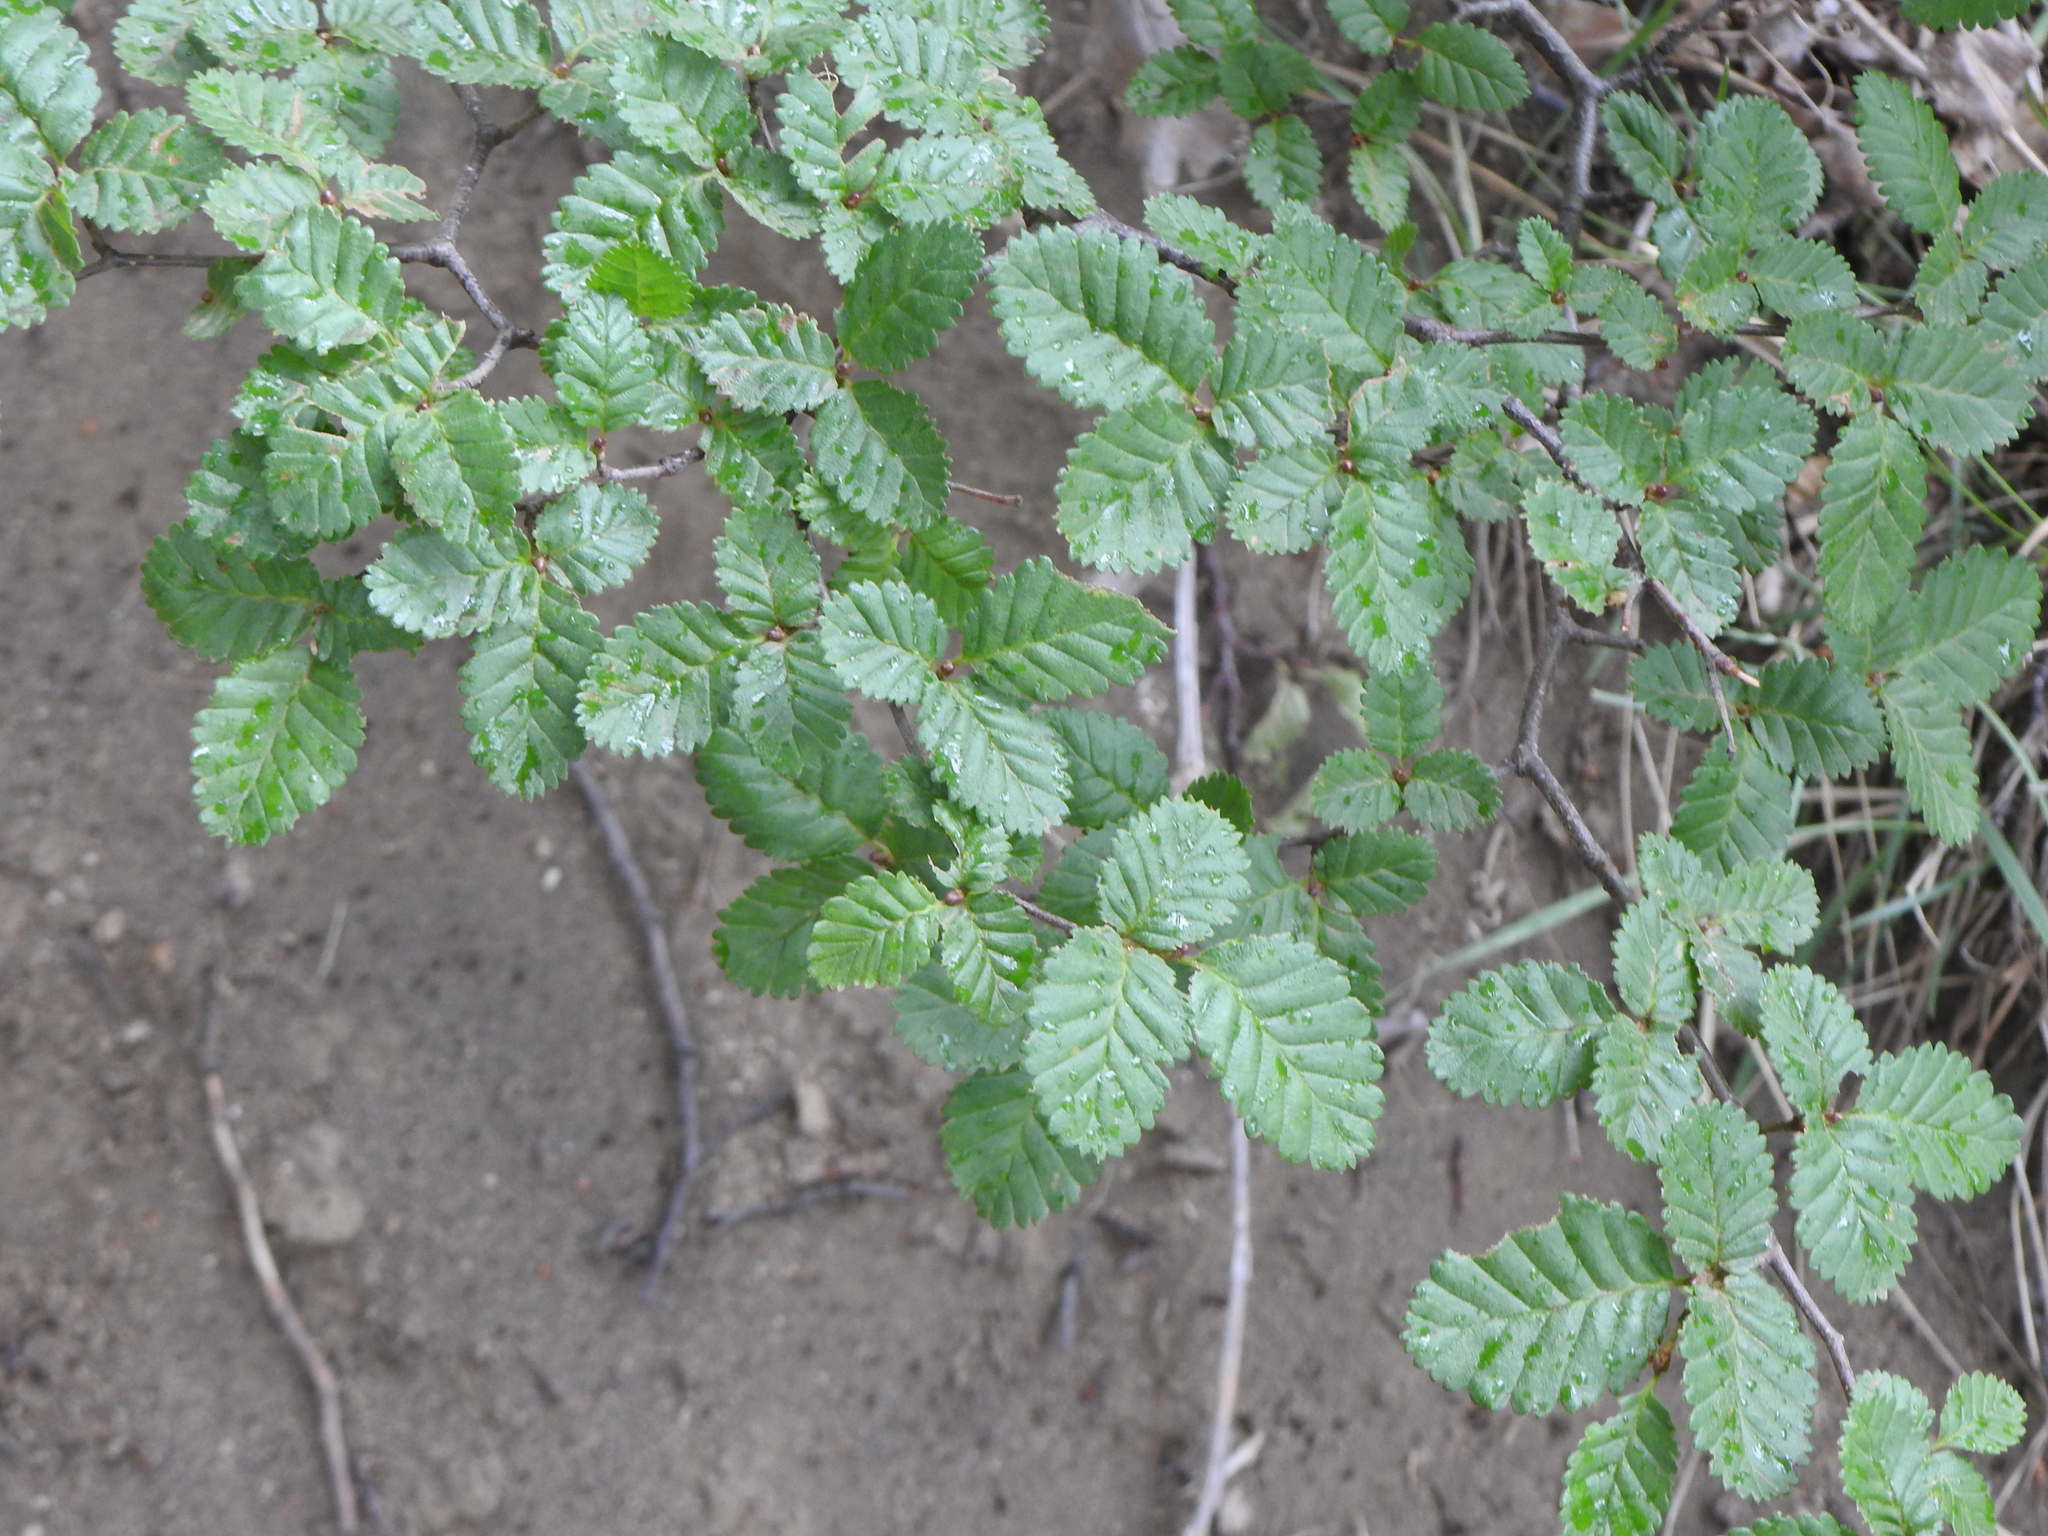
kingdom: Plantae
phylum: Tracheophyta
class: Magnoliopsida
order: Fagales
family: Nothofagaceae
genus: Nothofagus
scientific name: Nothofagus pumilio
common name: Lenga beech
